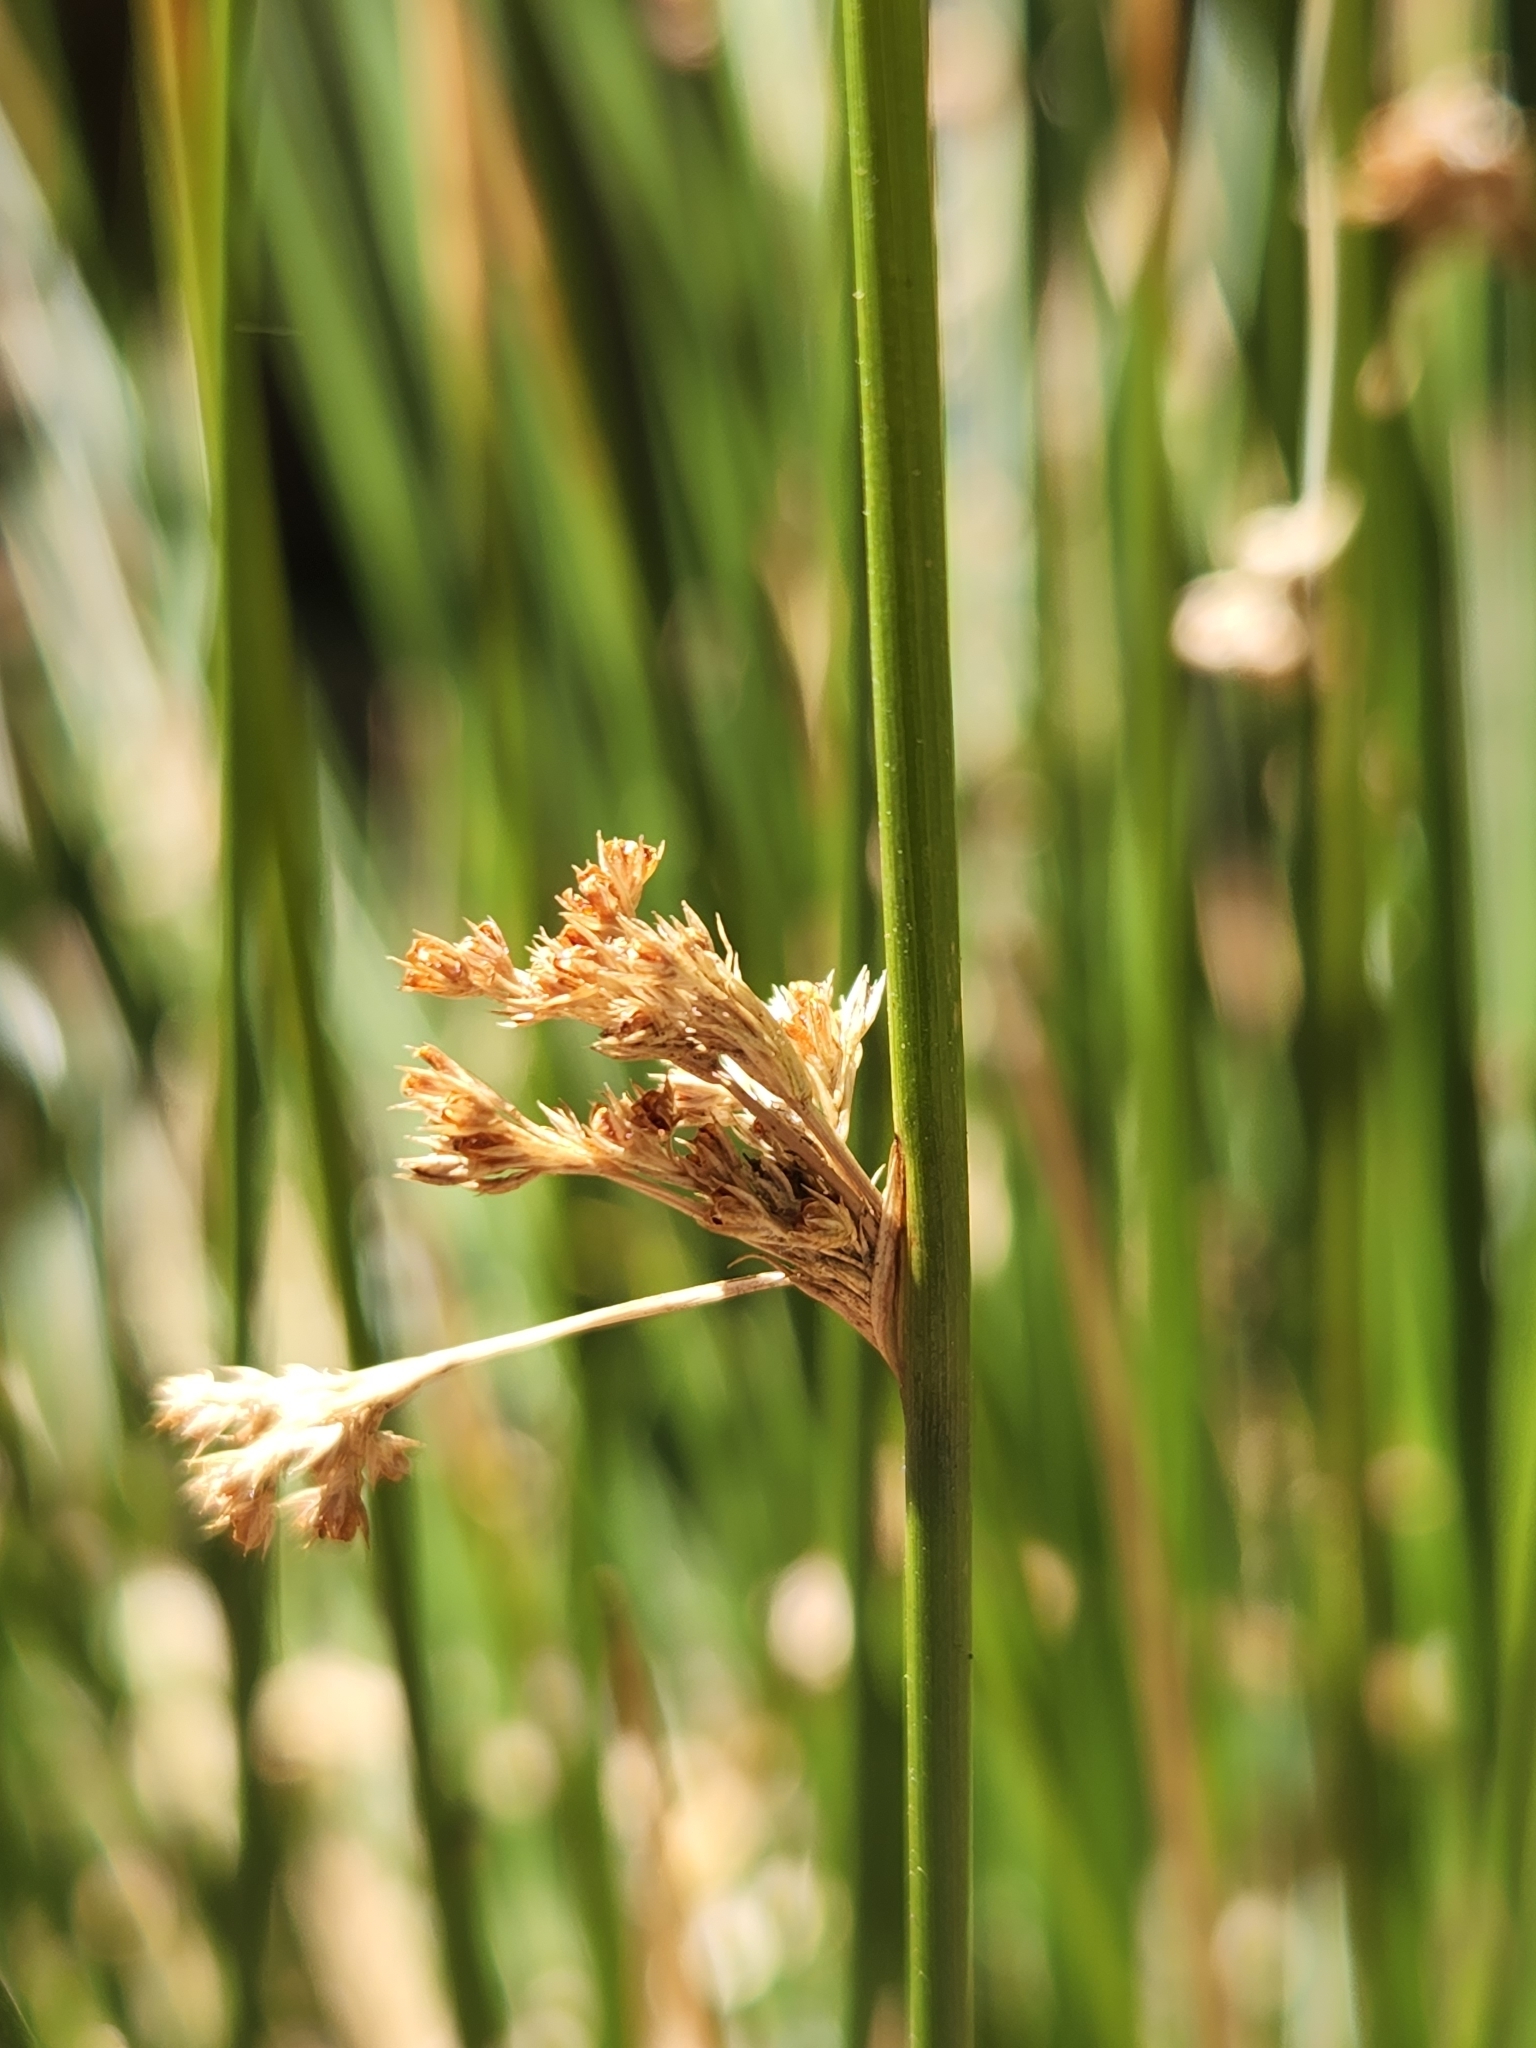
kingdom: Plantae
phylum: Tracheophyta
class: Liliopsida
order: Poales
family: Juncaceae
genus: Juncus
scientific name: Juncus effusus
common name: Soft rush
